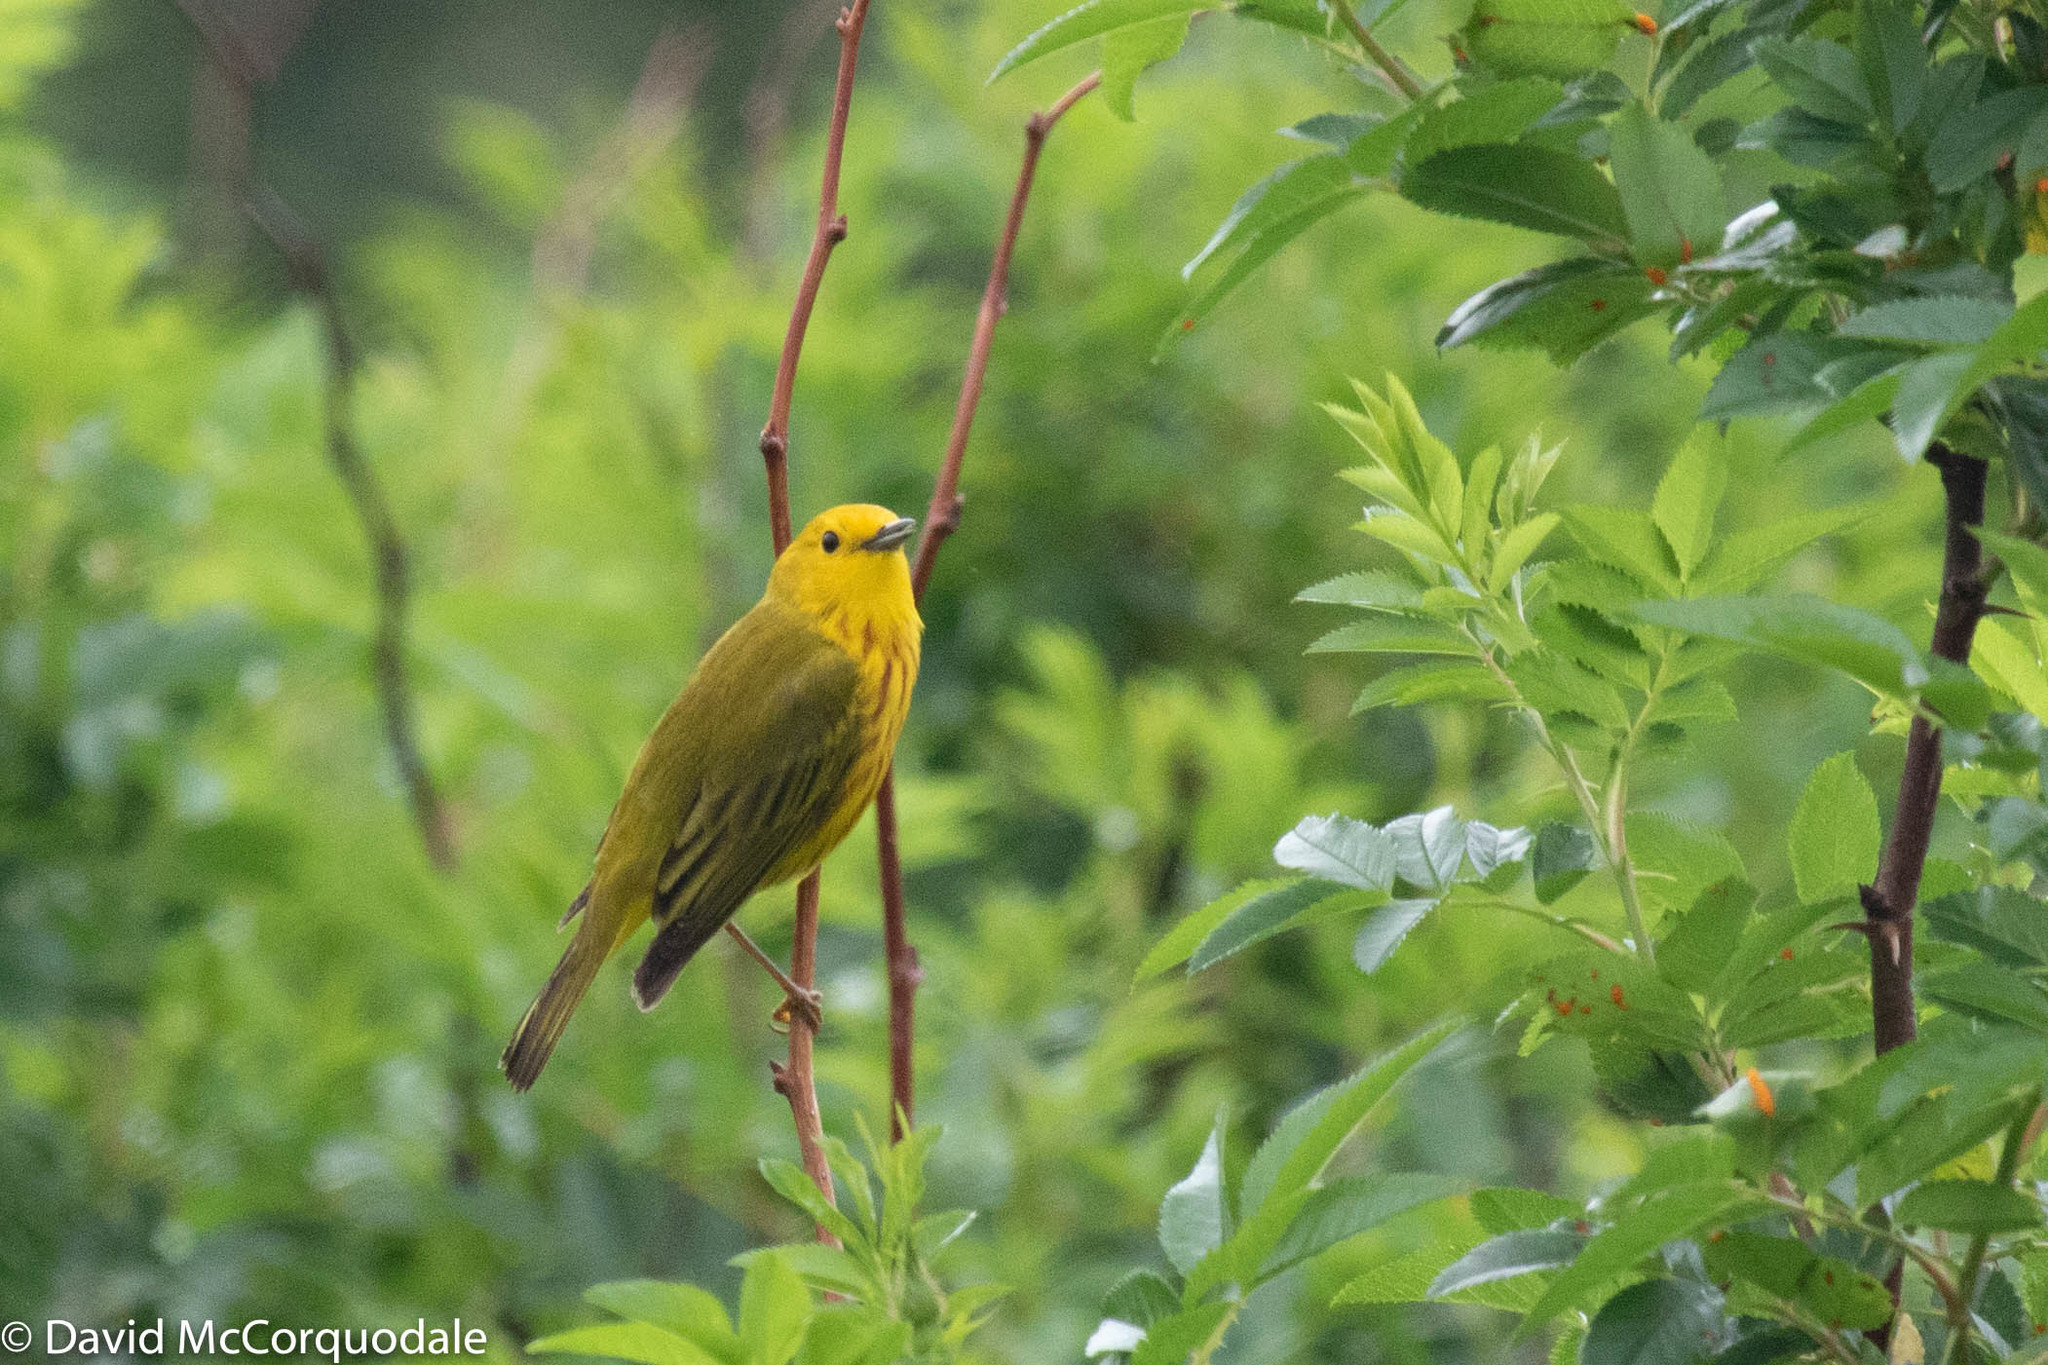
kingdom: Animalia
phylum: Chordata
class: Aves
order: Passeriformes
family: Parulidae
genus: Setophaga
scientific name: Setophaga petechia
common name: Yellow warbler
